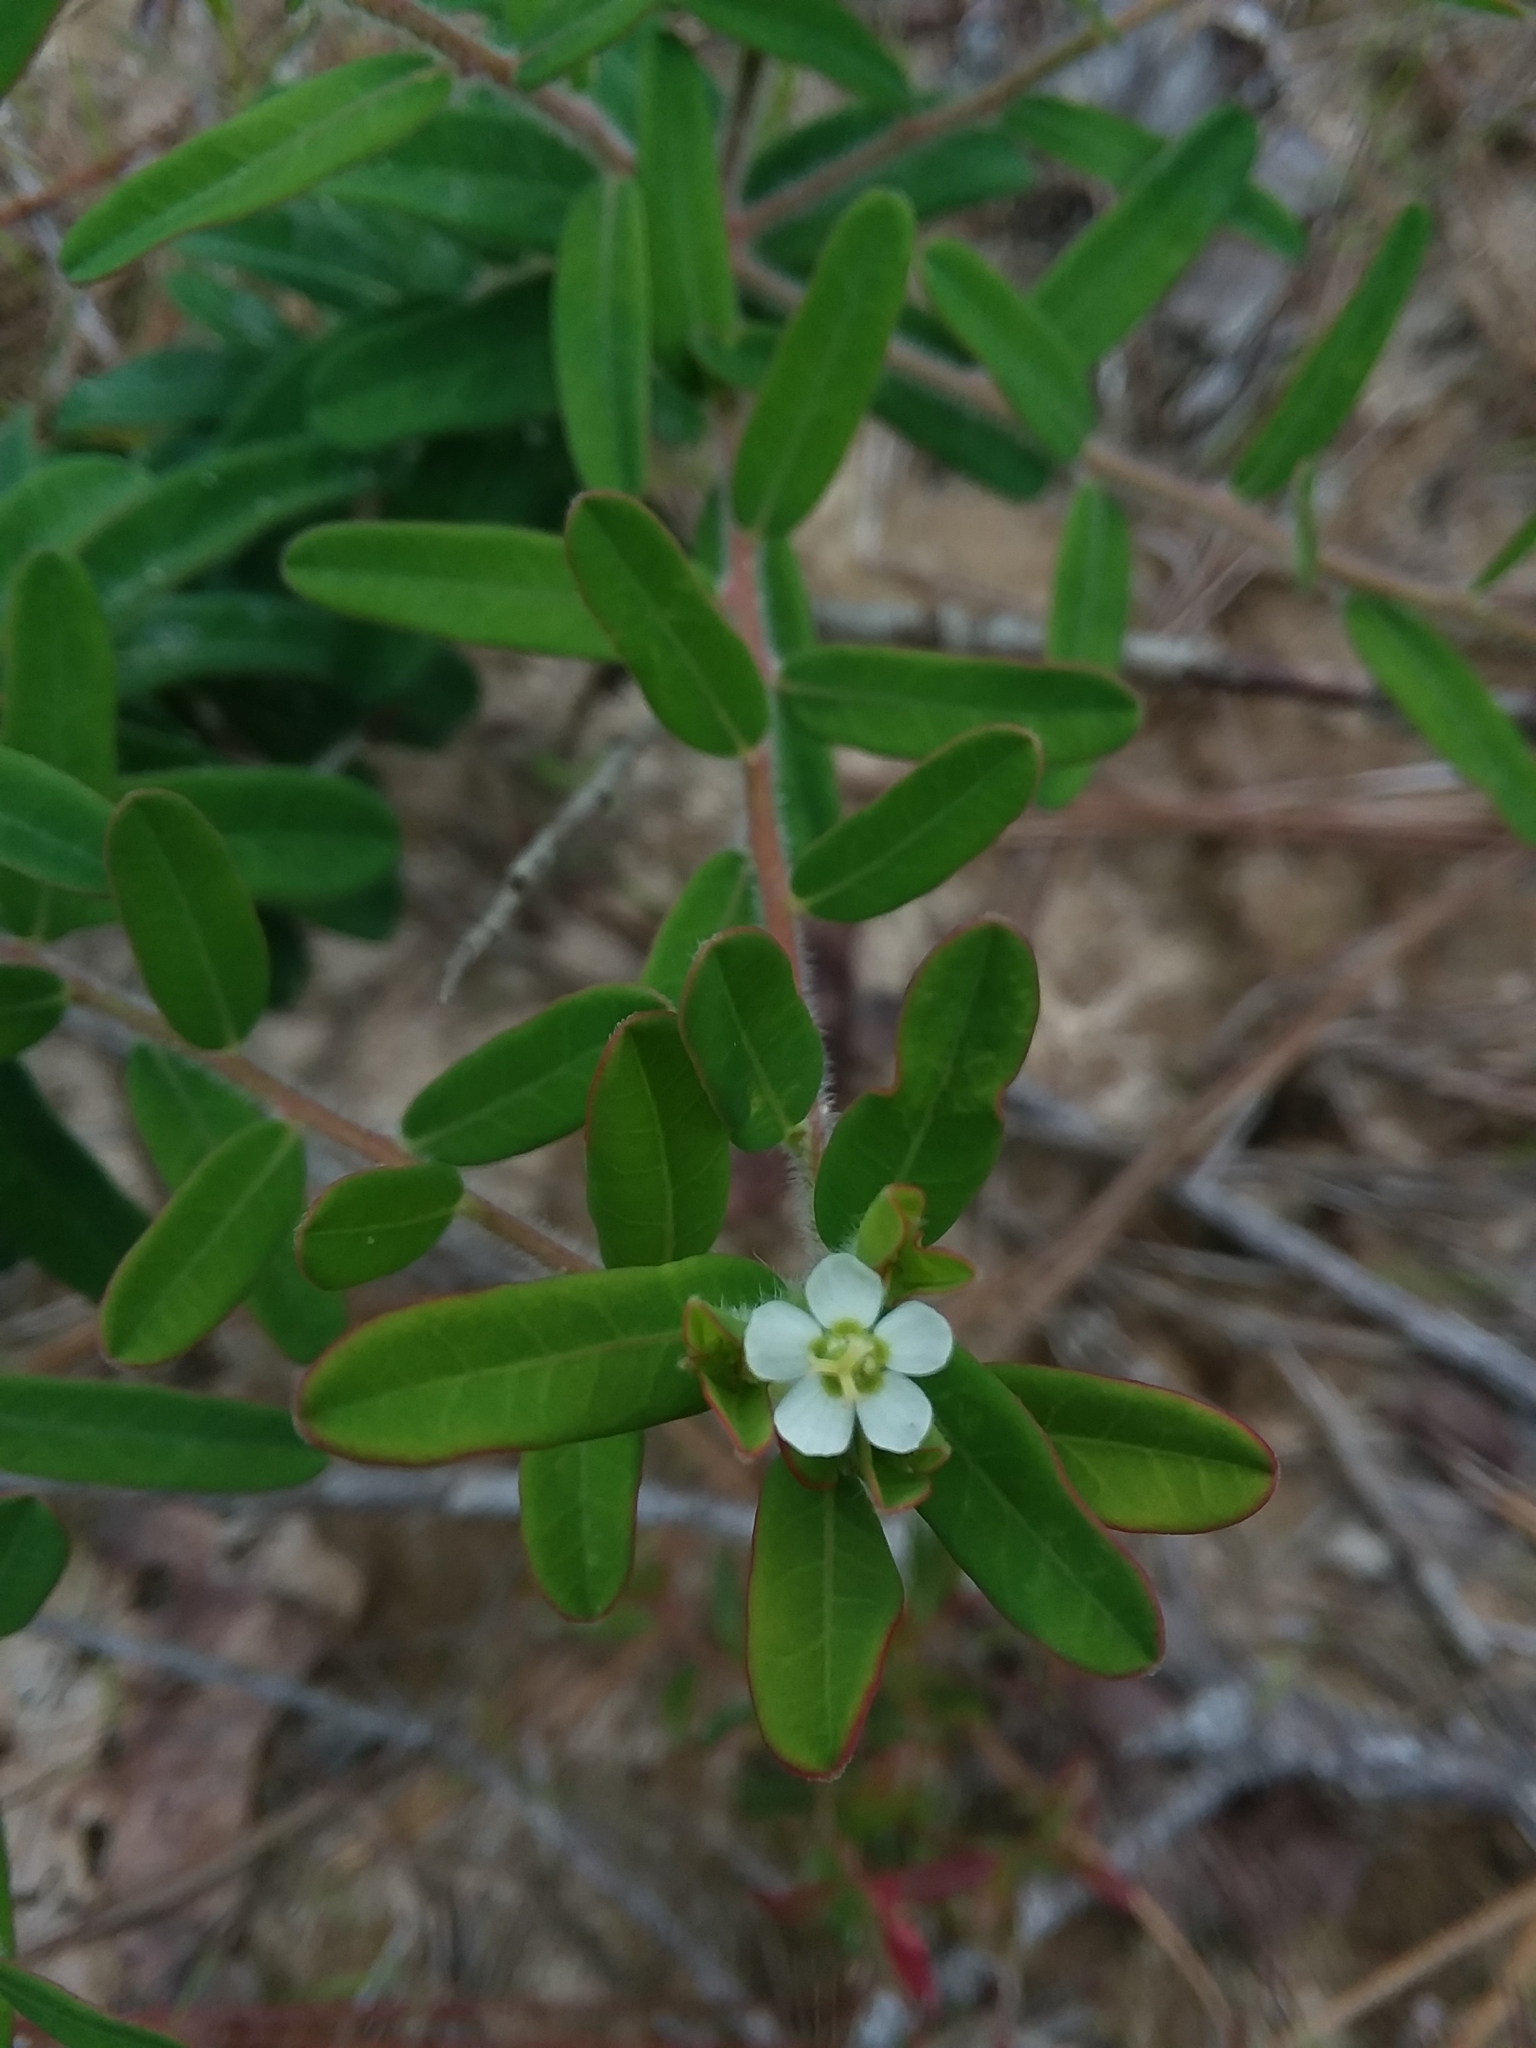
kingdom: Plantae
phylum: Tracheophyta
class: Magnoliopsida
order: Malpighiales
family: Euphorbiaceae
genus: Euphorbia
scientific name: Euphorbia pubentissima
